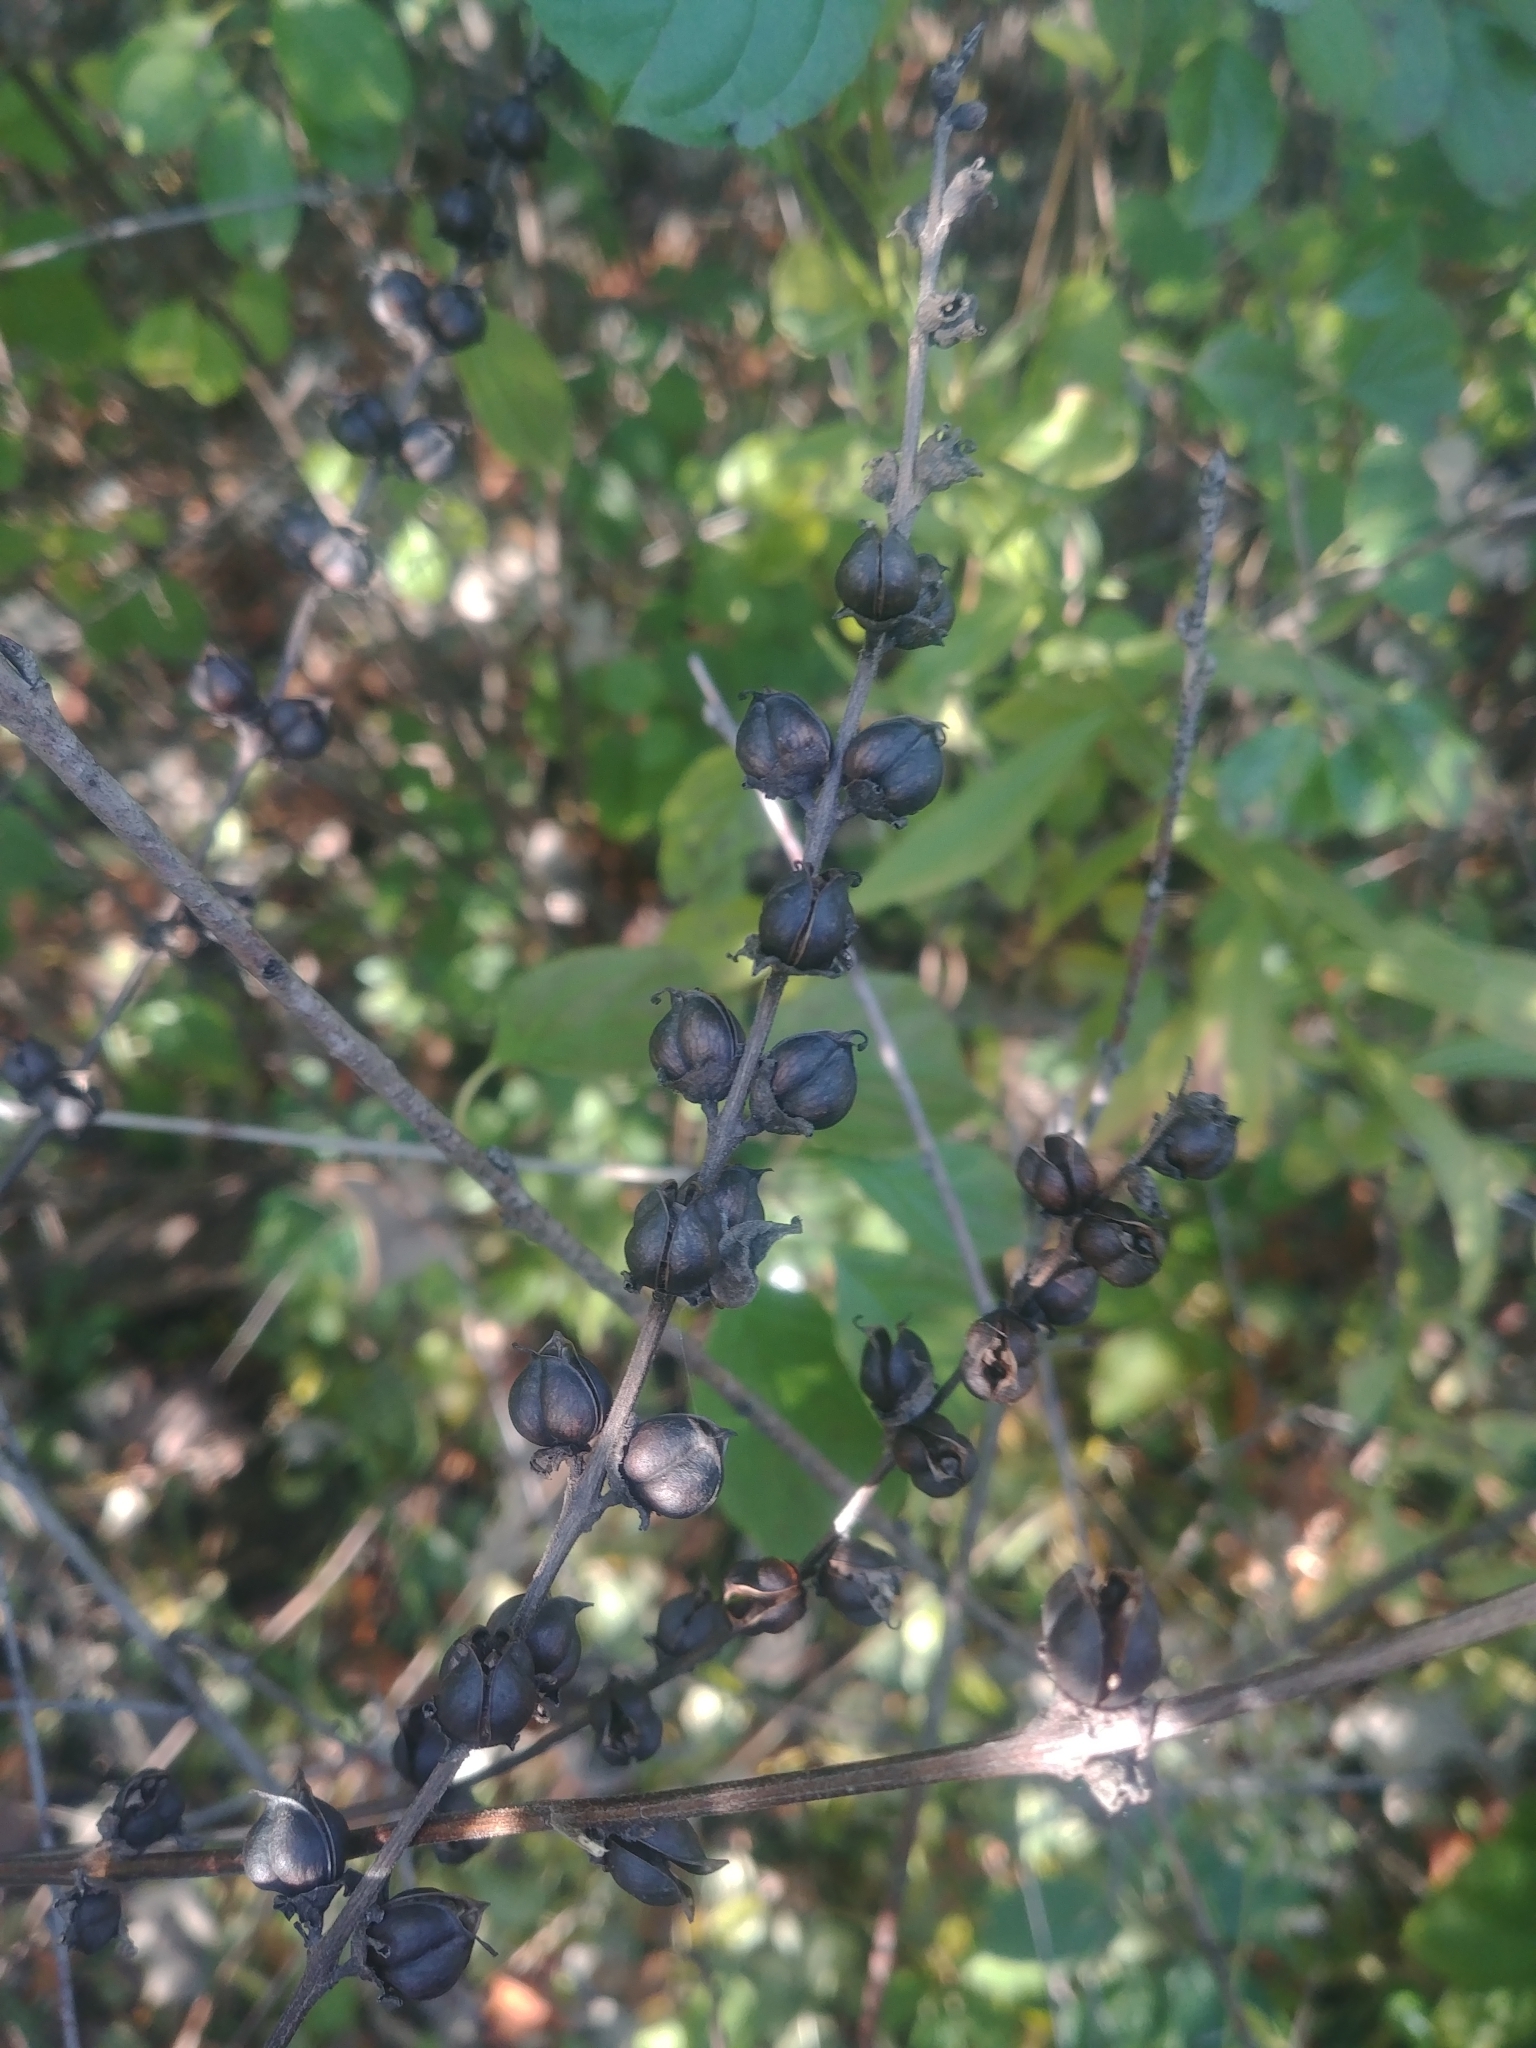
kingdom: Plantae
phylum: Tracheophyta
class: Magnoliopsida
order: Lamiales
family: Orobanchaceae
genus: Dasistoma
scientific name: Dasistoma macrophyllum
